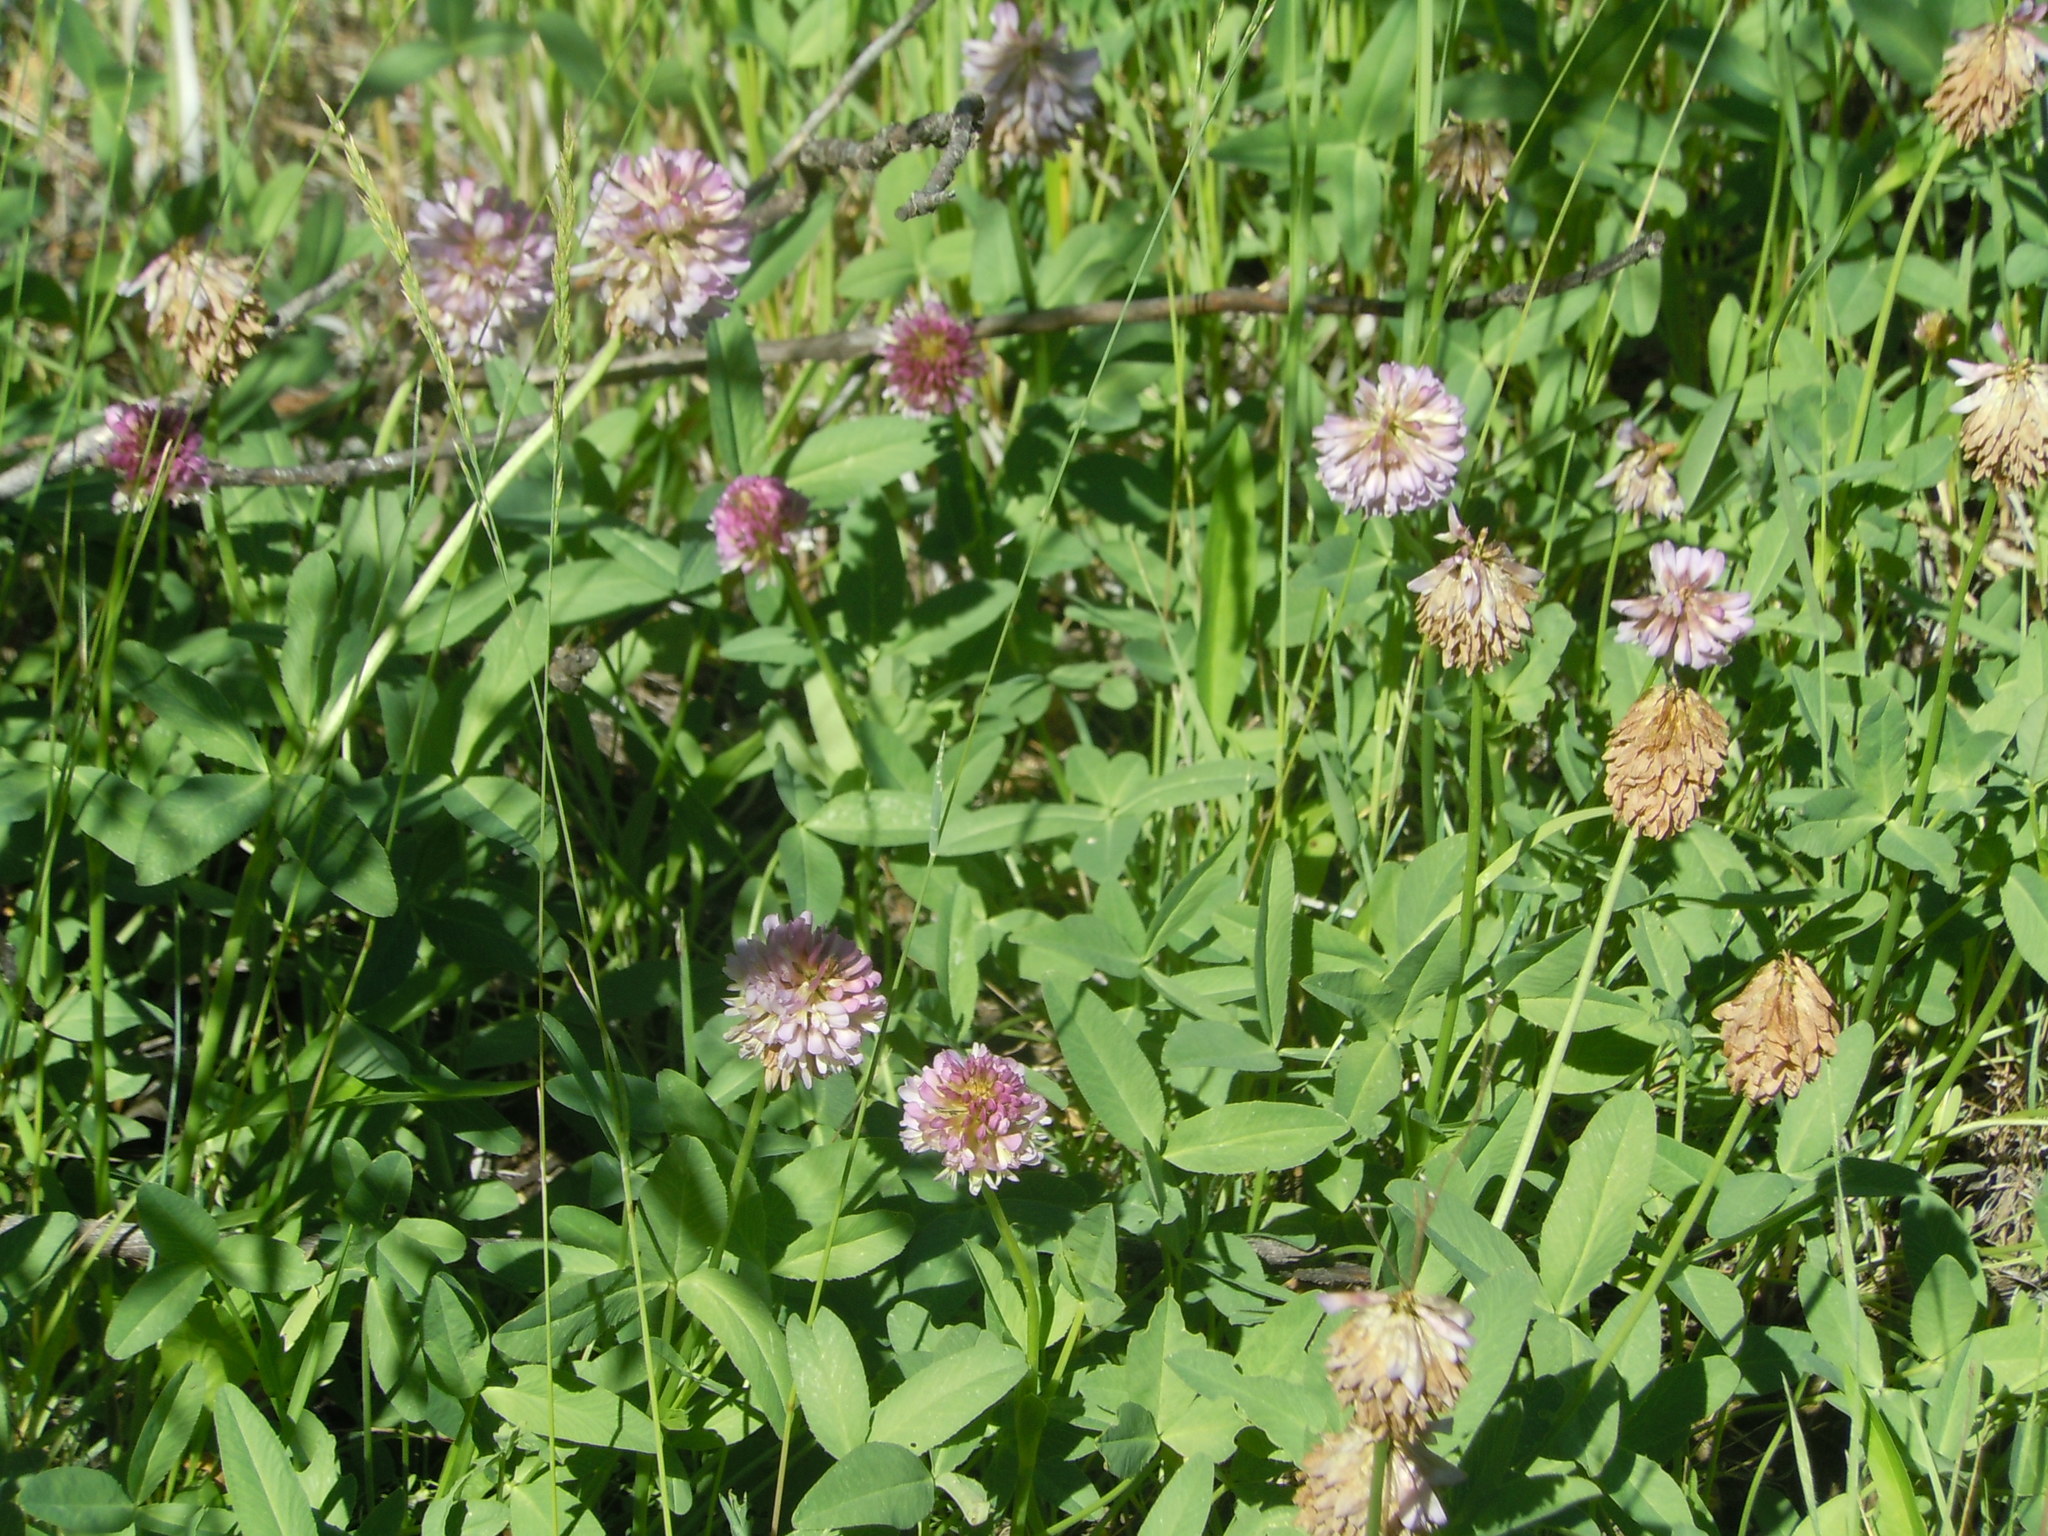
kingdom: Plantae
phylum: Tracheophyta
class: Magnoliopsida
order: Fabales
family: Fabaceae
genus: Trifolium
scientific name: Trifolium beckwithii
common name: Beckwith's clover
